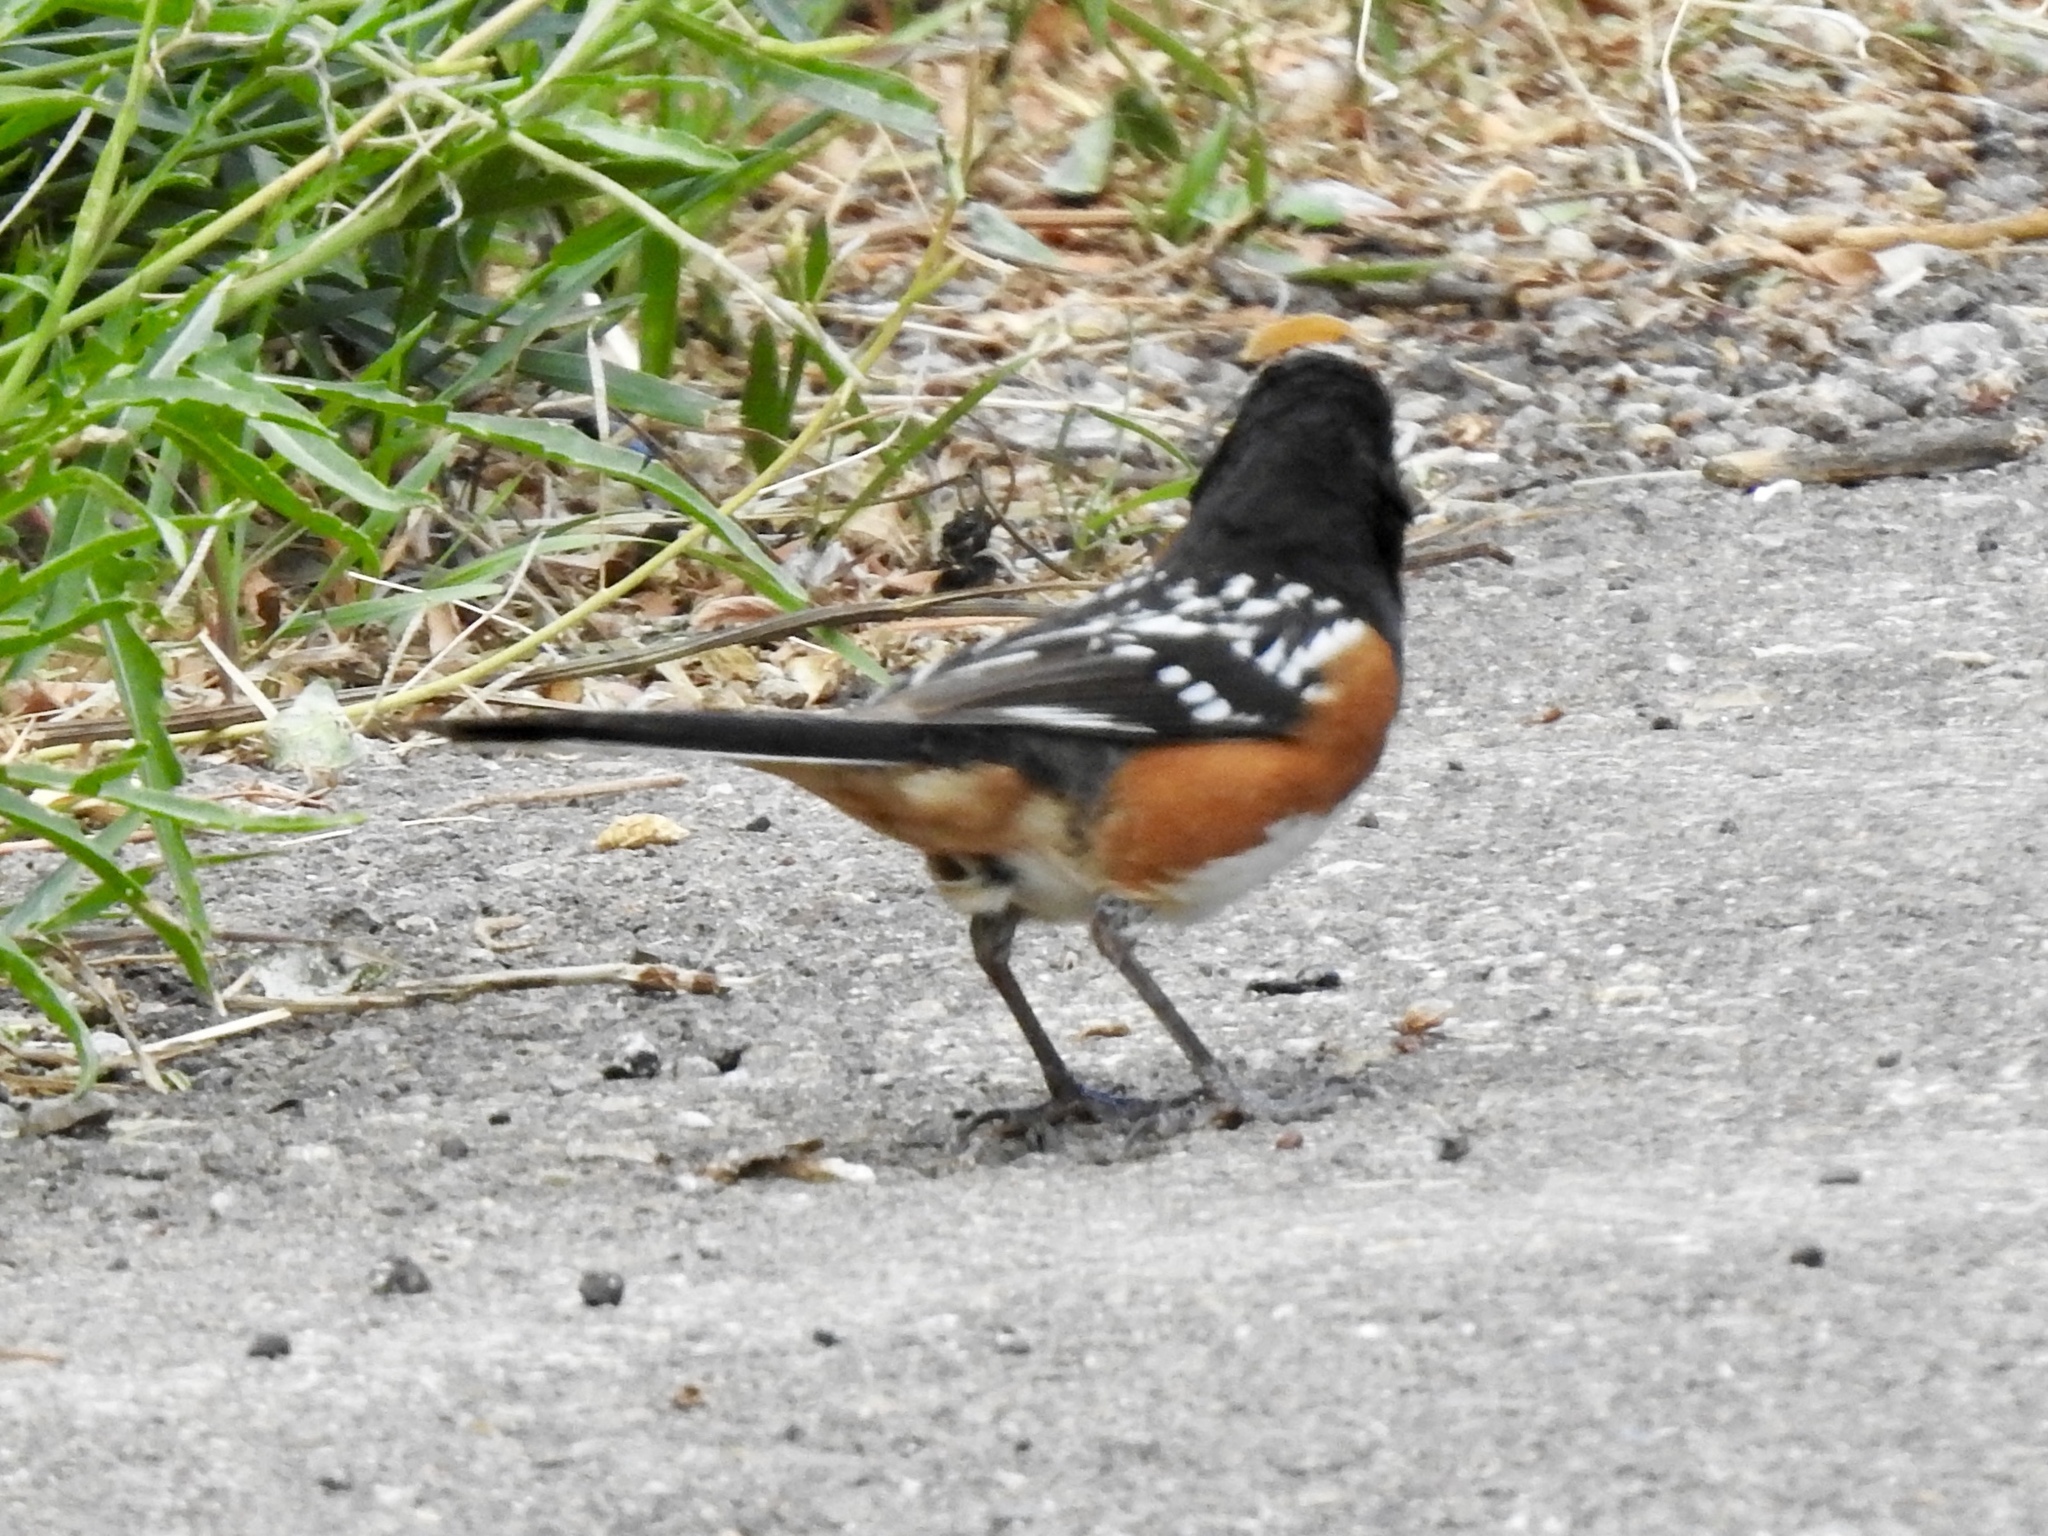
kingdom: Animalia
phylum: Chordata
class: Aves
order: Passeriformes
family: Passerellidae
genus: Pipilo
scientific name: Pipilo maculatus
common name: Spotted towhee
